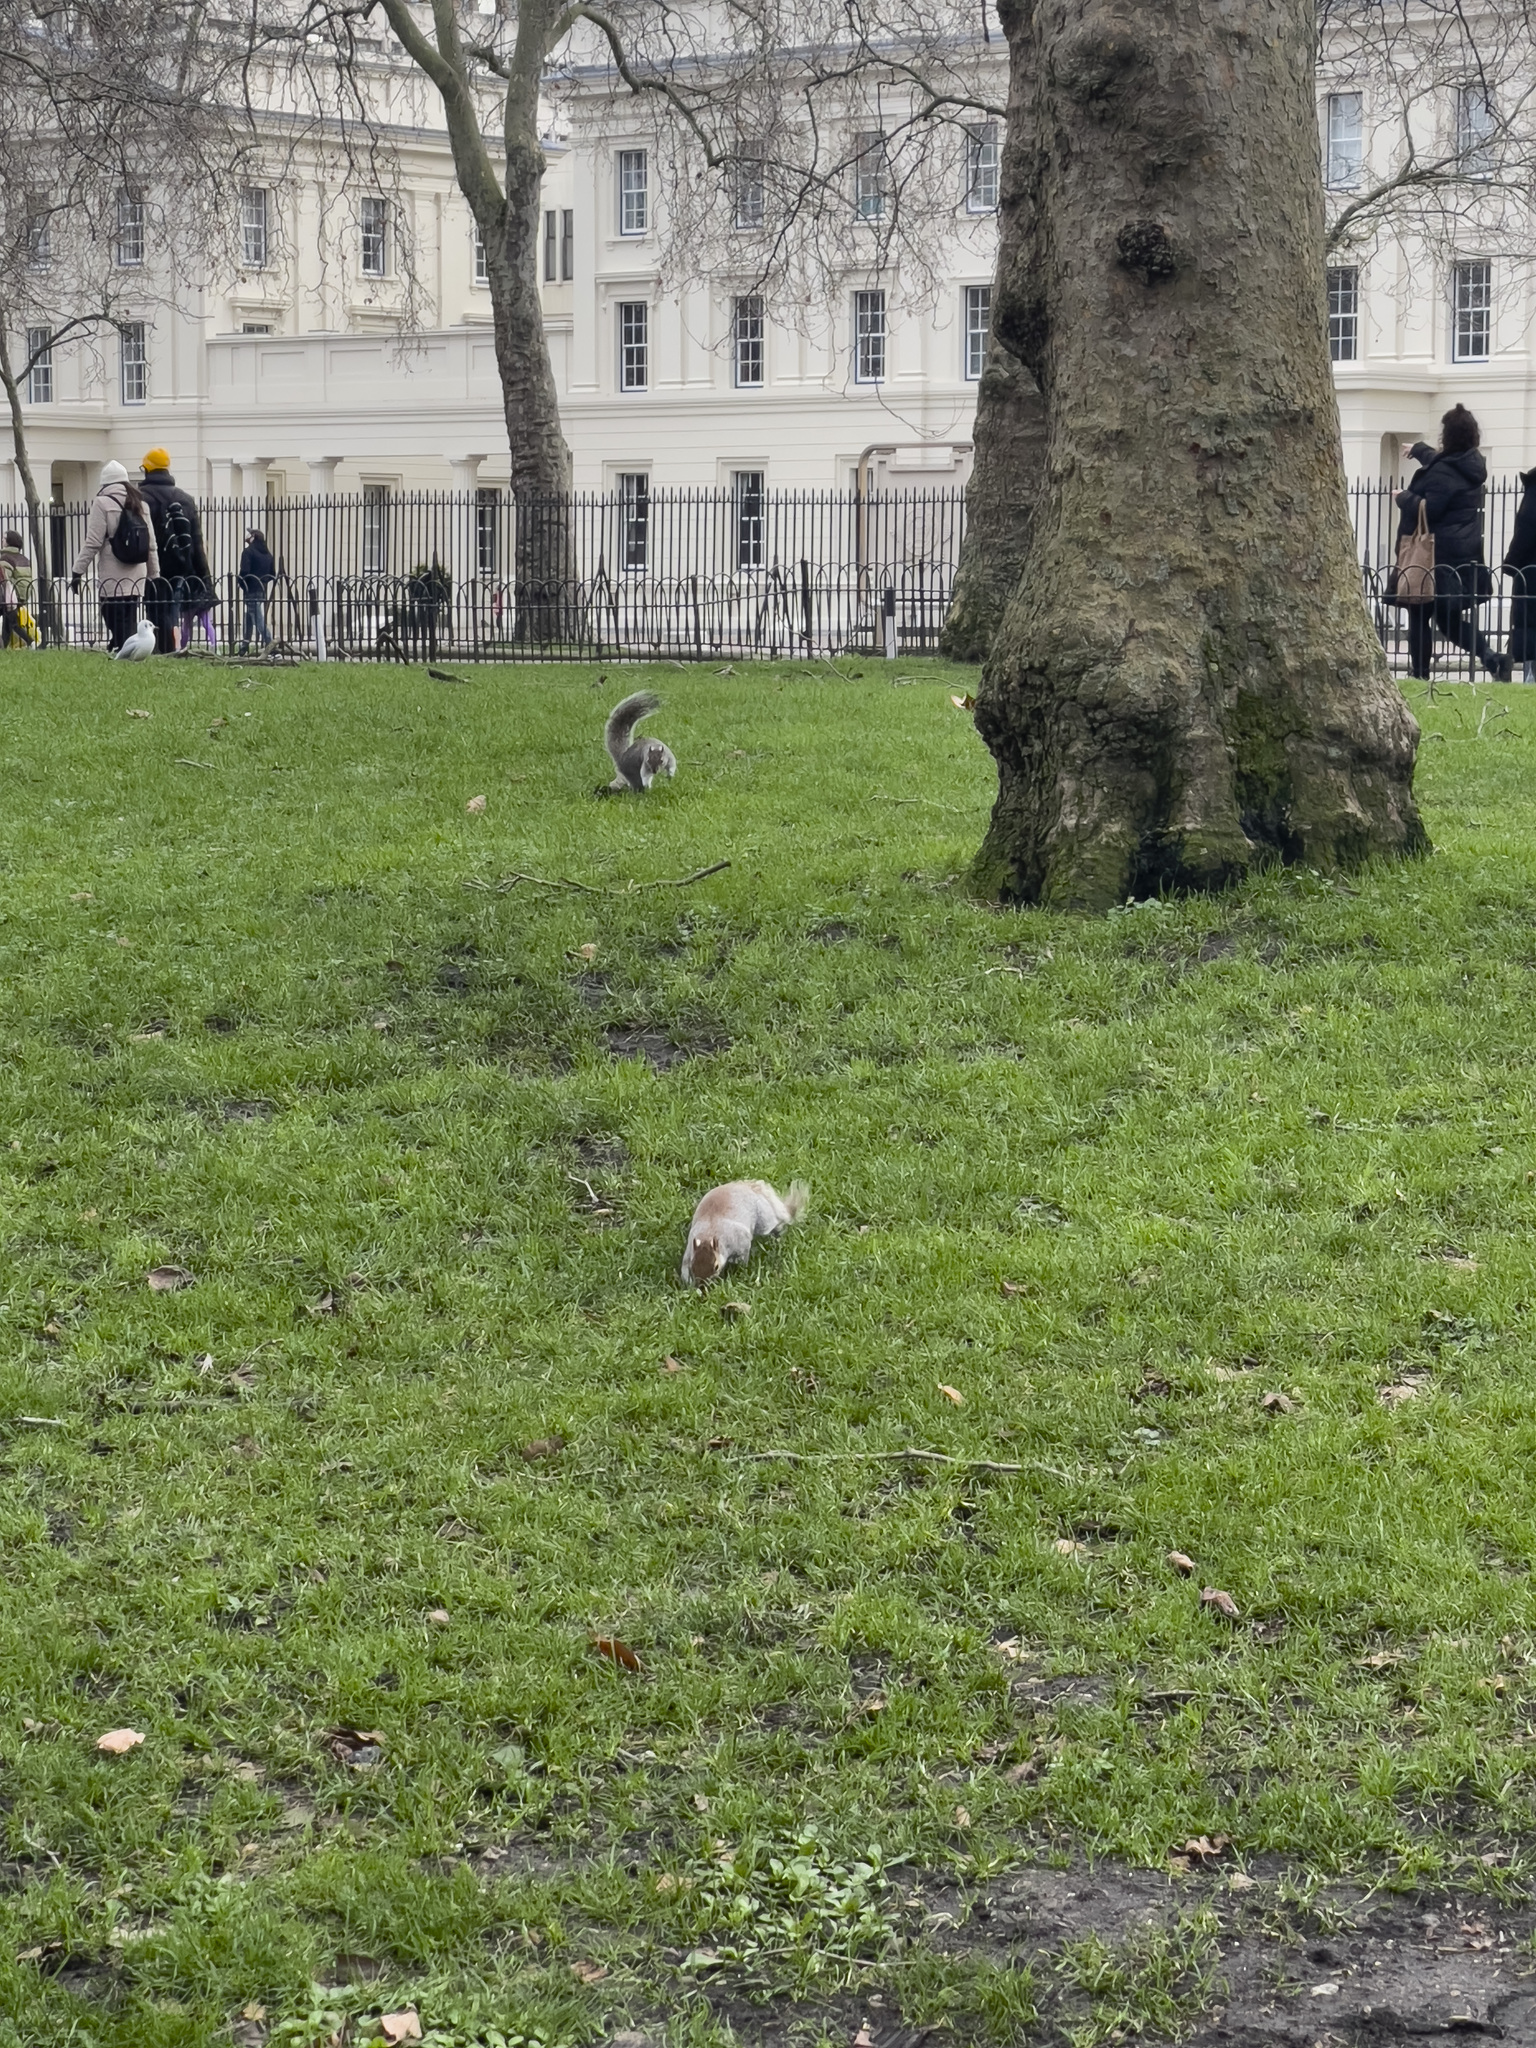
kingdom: Animalia
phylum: Chordata
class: Mammalia
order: Rodentia
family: Sciuridae
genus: Sciurus
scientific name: Sciurus carolinensis
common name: Eastern gray squirrel
